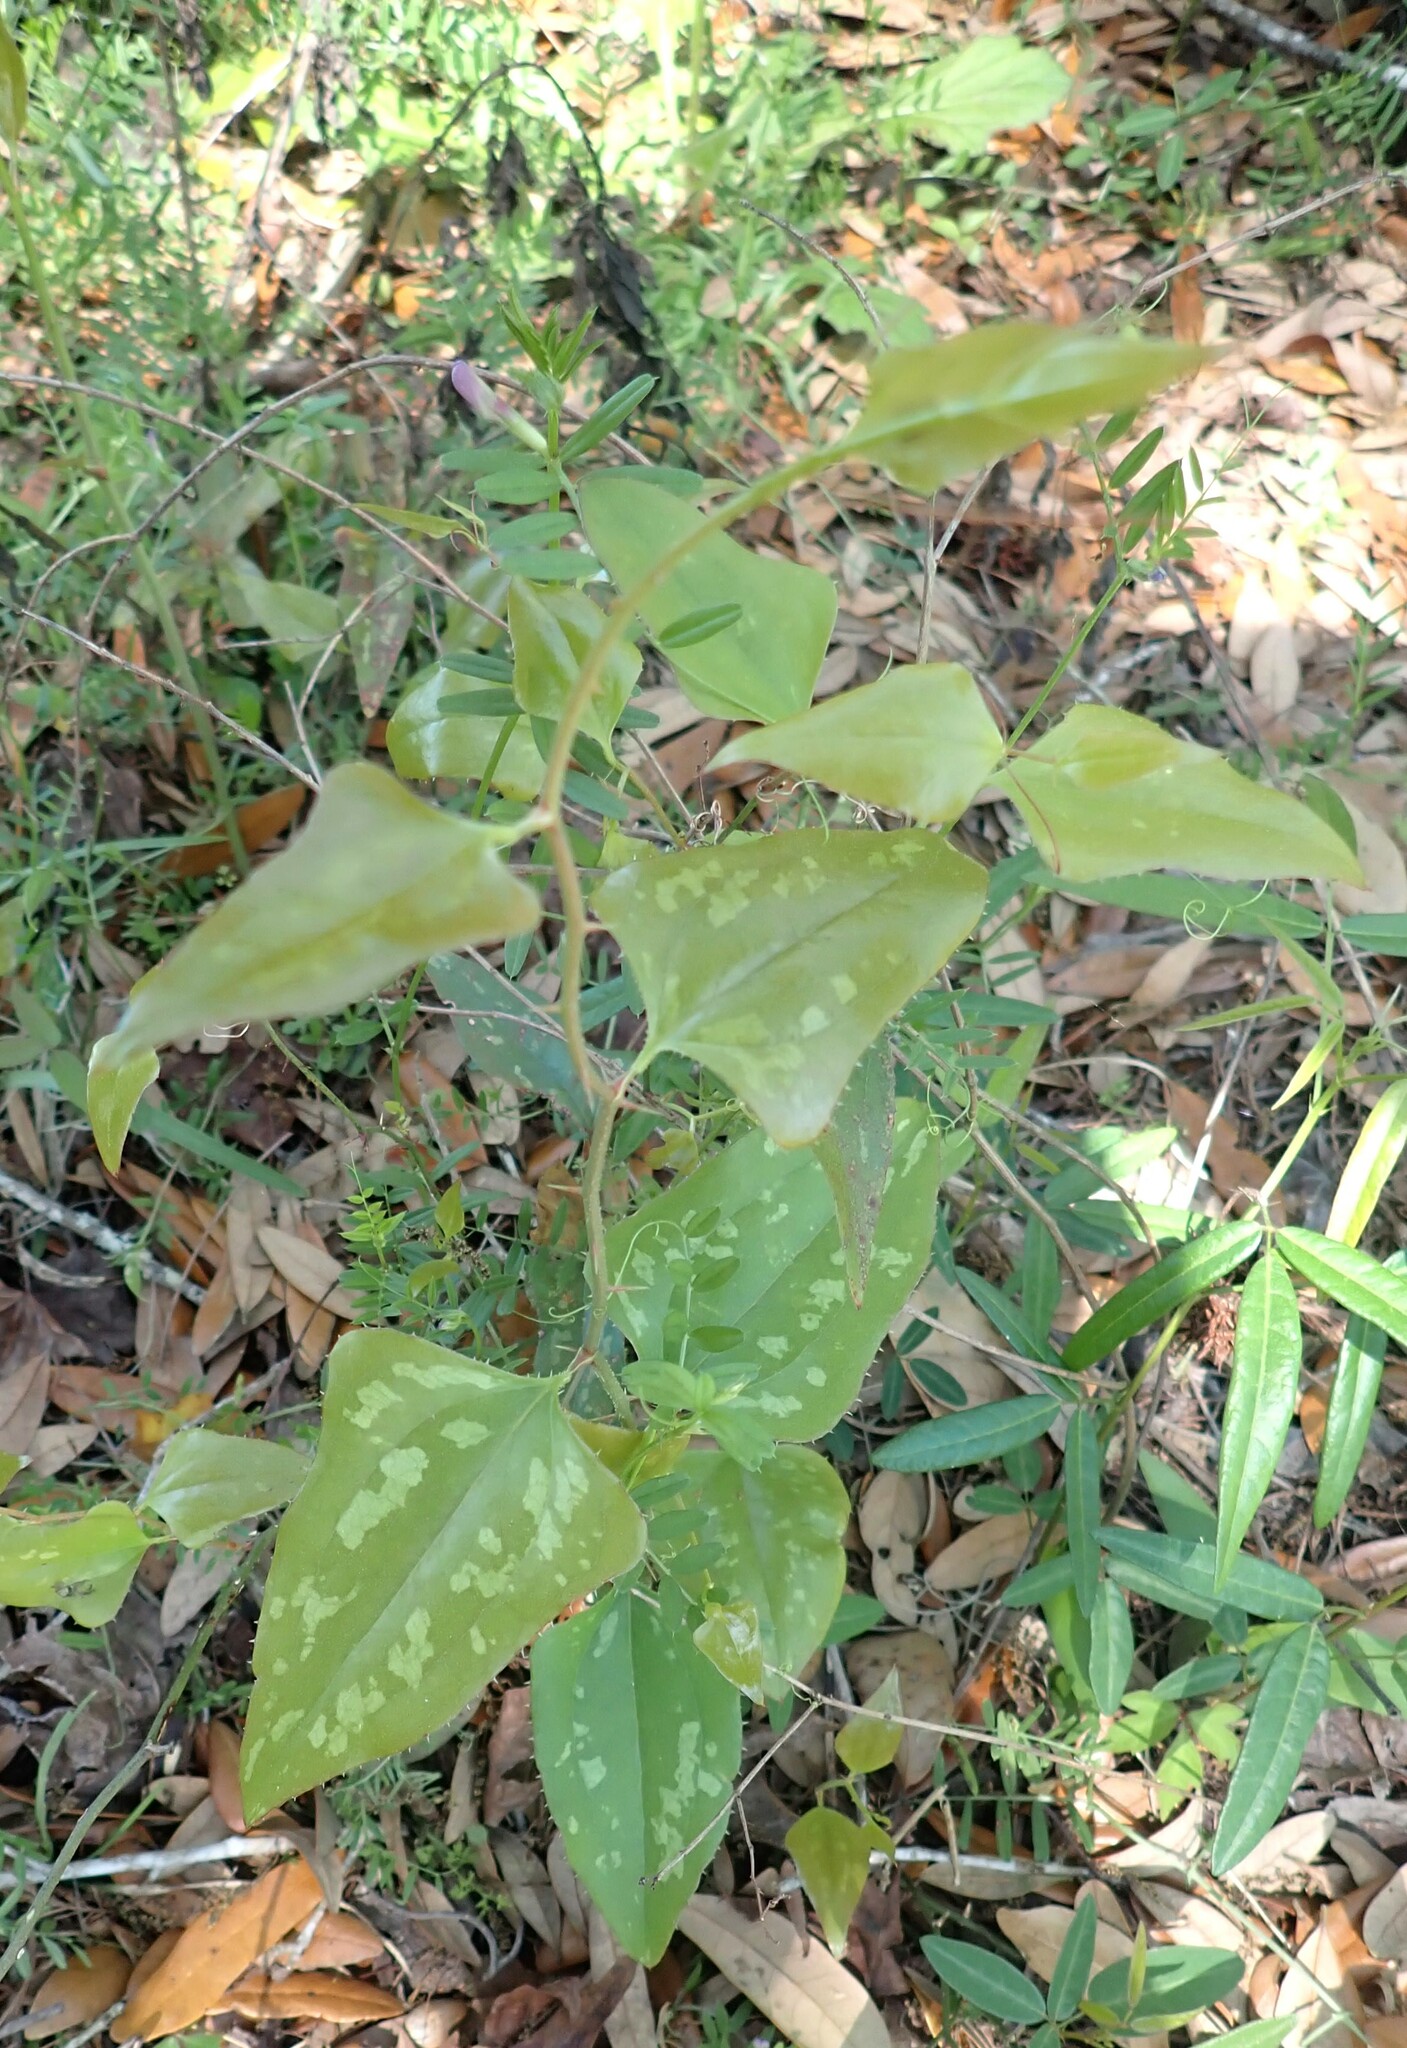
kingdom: Plantae
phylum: Tracheophyta
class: Liliopsida
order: Liliales
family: Smilacaceae
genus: Smilax
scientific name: Smilax bona-nox
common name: Catbrier
